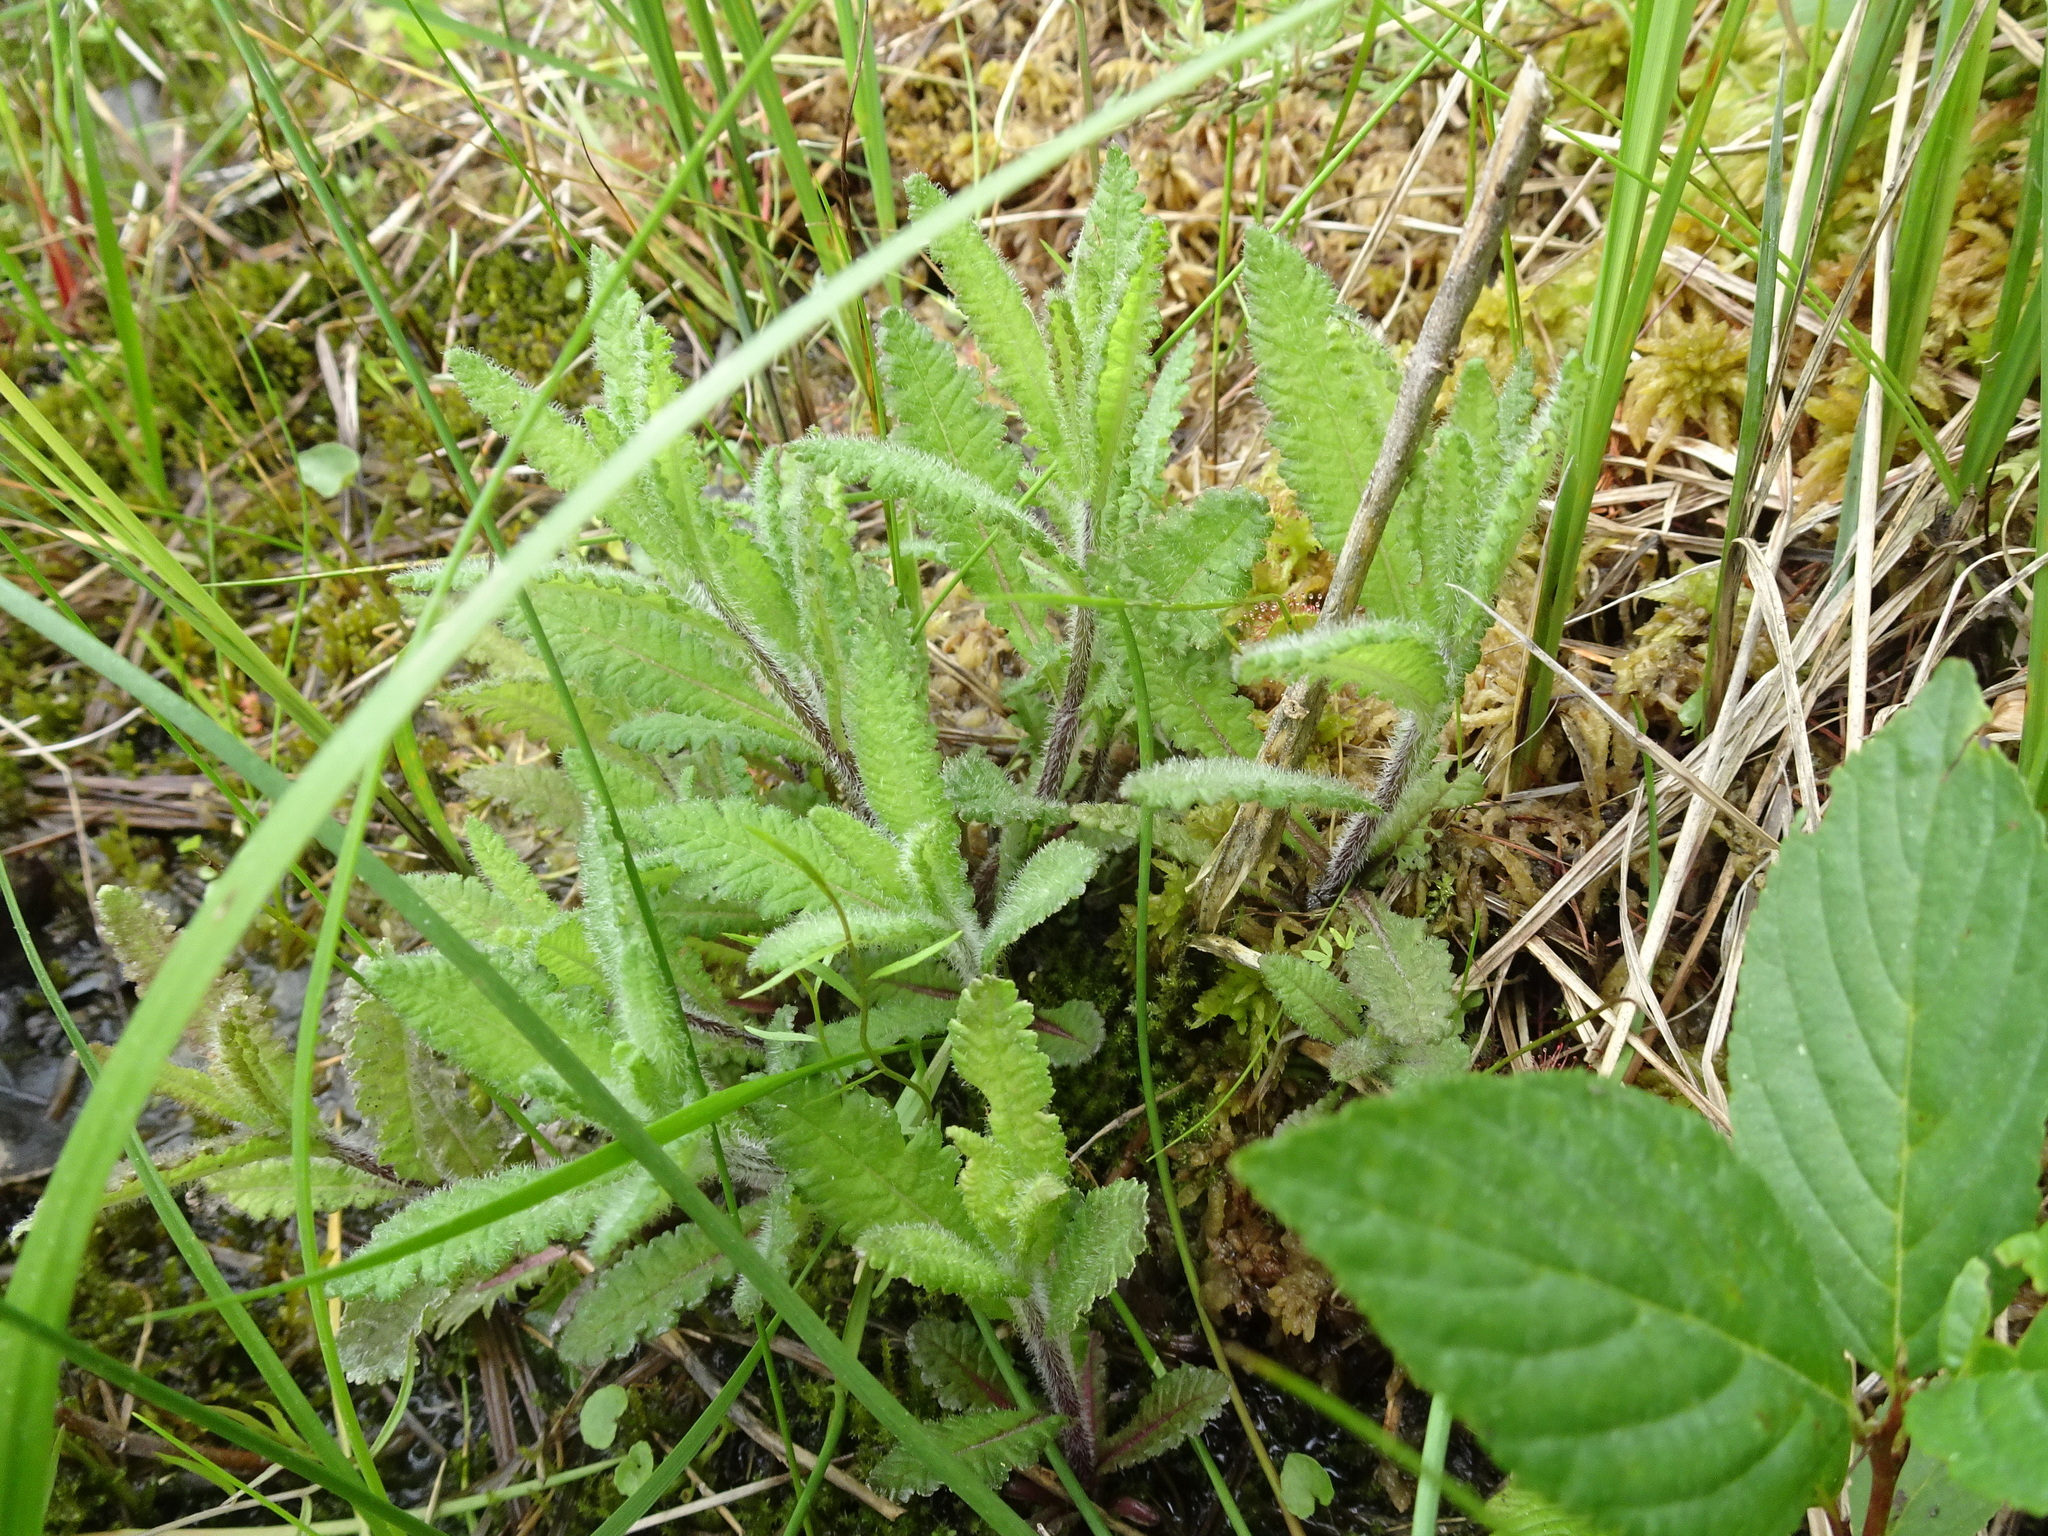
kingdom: Plantae
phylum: Tracheophyta
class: Magnoliopsida
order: Lamiales
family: Orobanchaceae
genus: Pedicularis
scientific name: Pedicularis lanceolata
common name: Swamp lousewort
